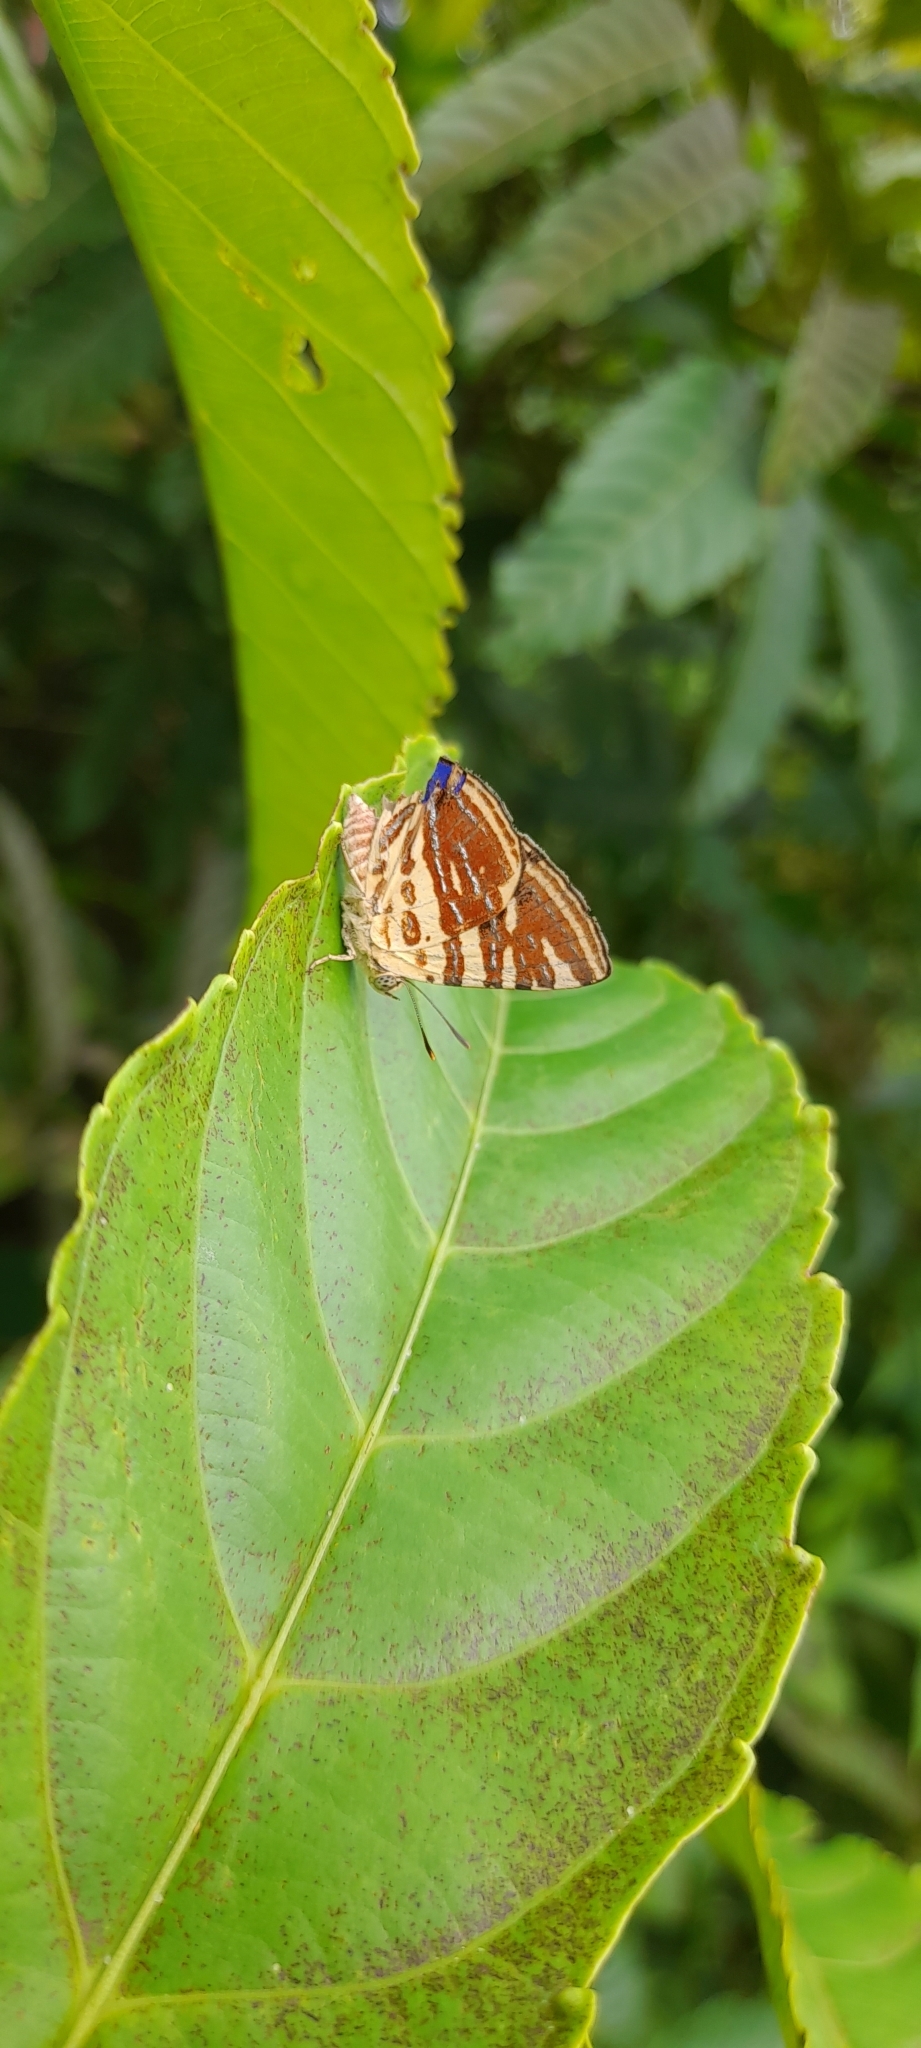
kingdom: Animalia
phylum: Arthropoda
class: Insecta
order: Lepidoptera
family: Lycaenidae
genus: Cigaritis
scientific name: Cigaritis lohita
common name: Long-banded silverline
